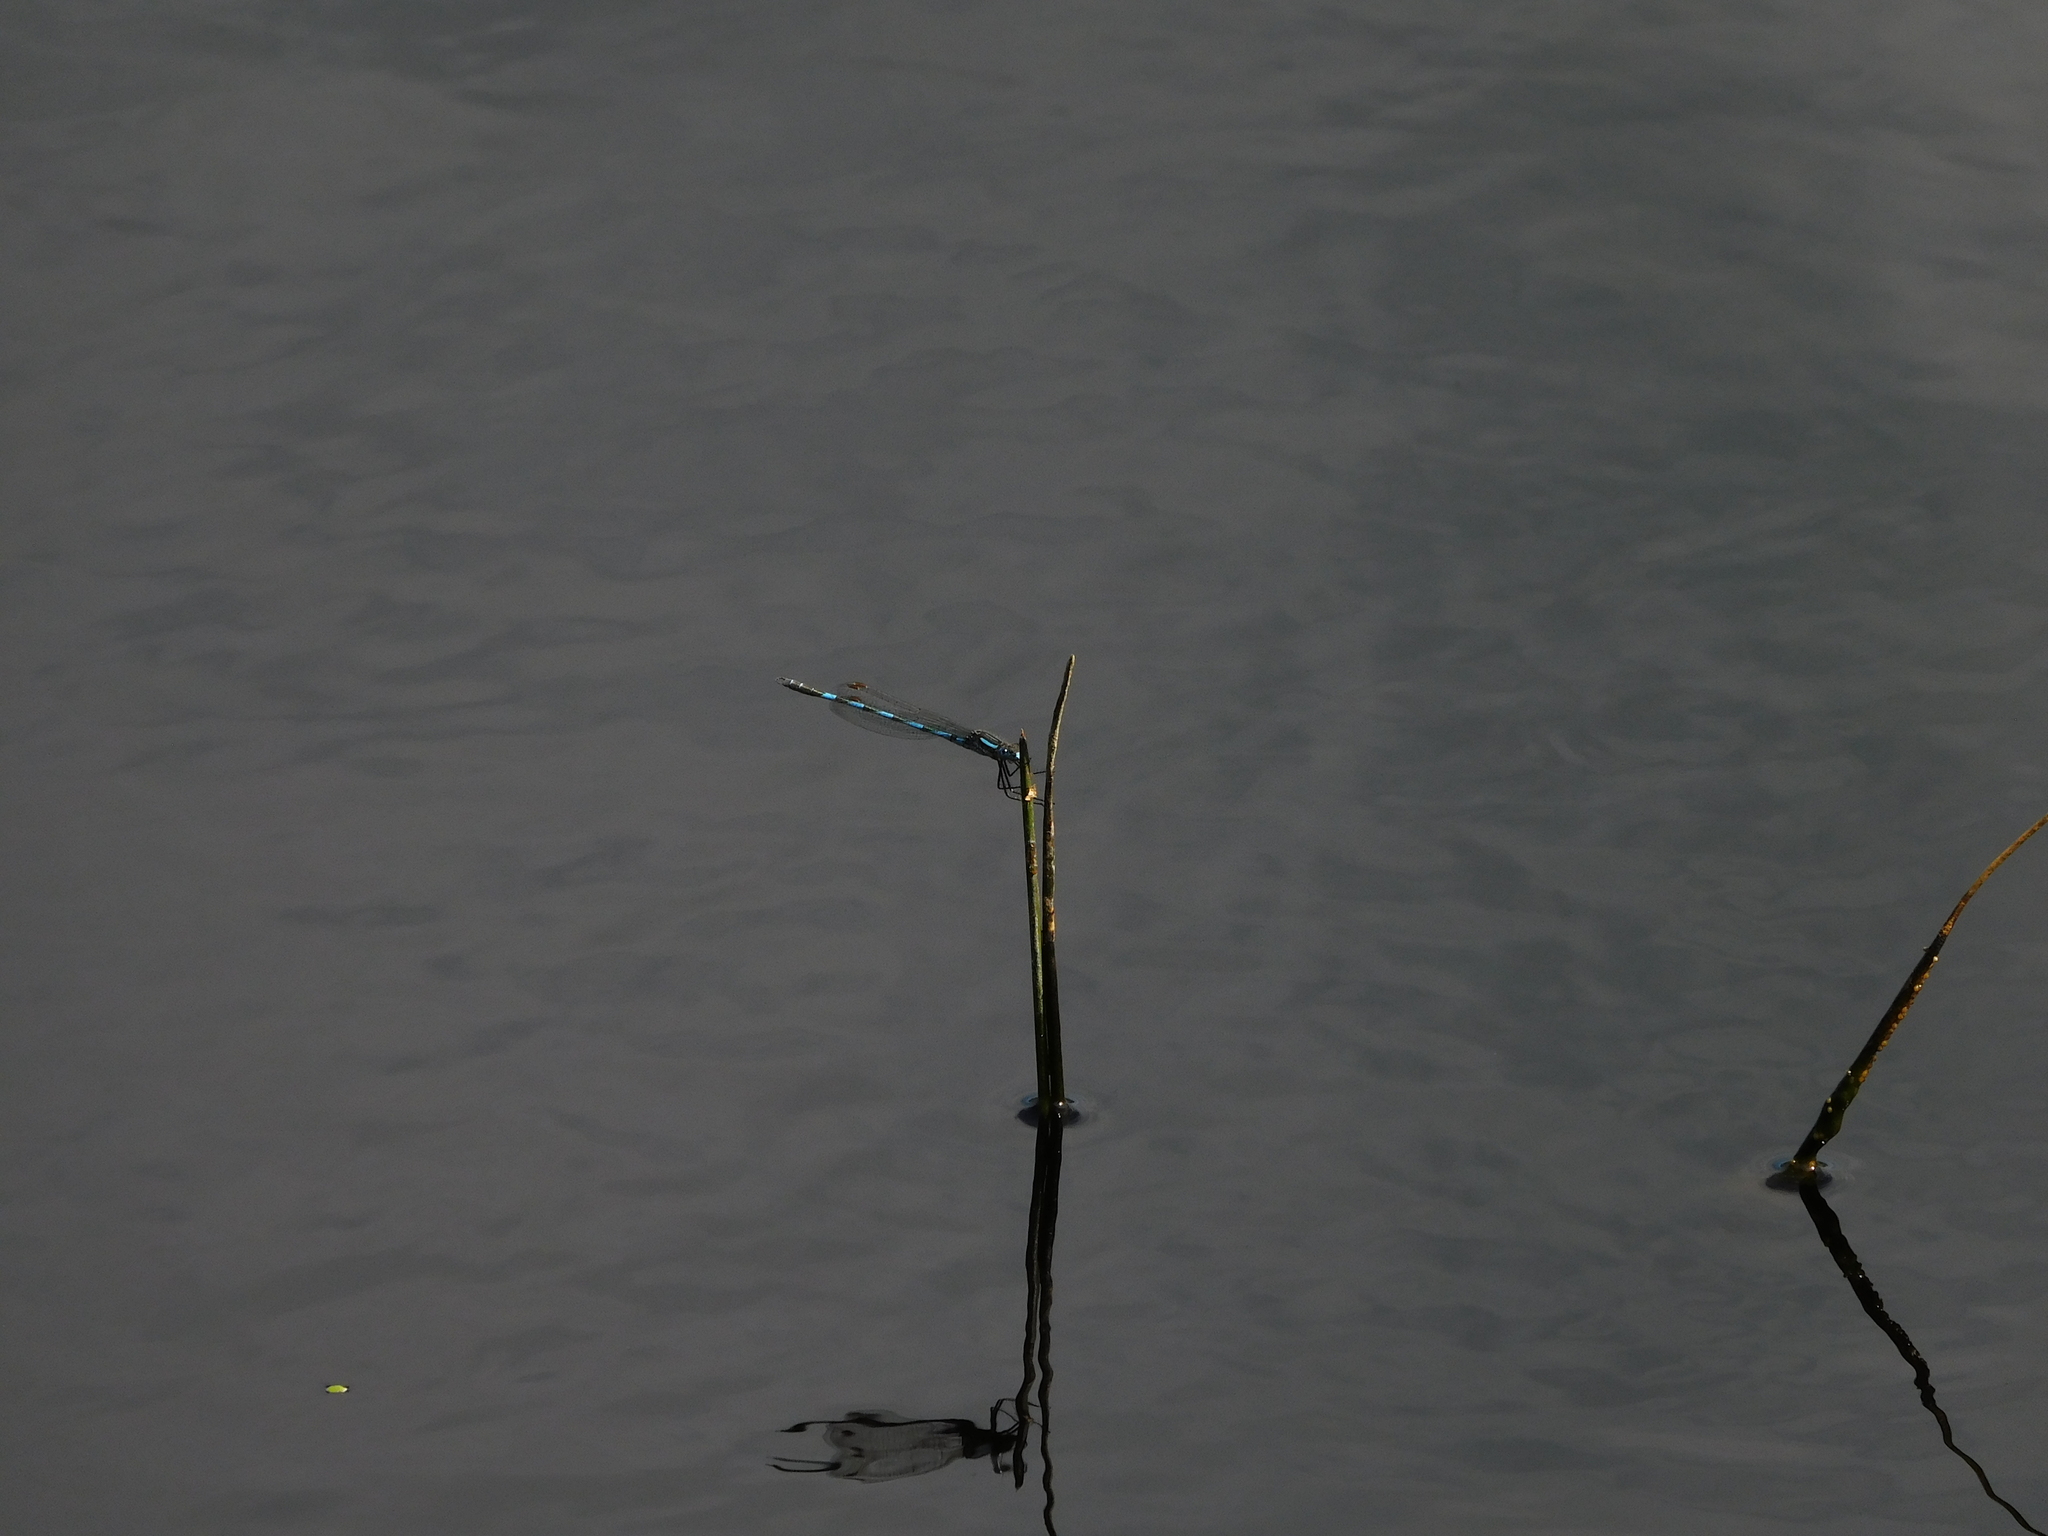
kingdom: Animalia
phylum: Arthropoda
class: Insecta
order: Odonata
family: Lestidae
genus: Austrolestes
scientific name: Austrolestes annulosus
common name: Blue ringtail
